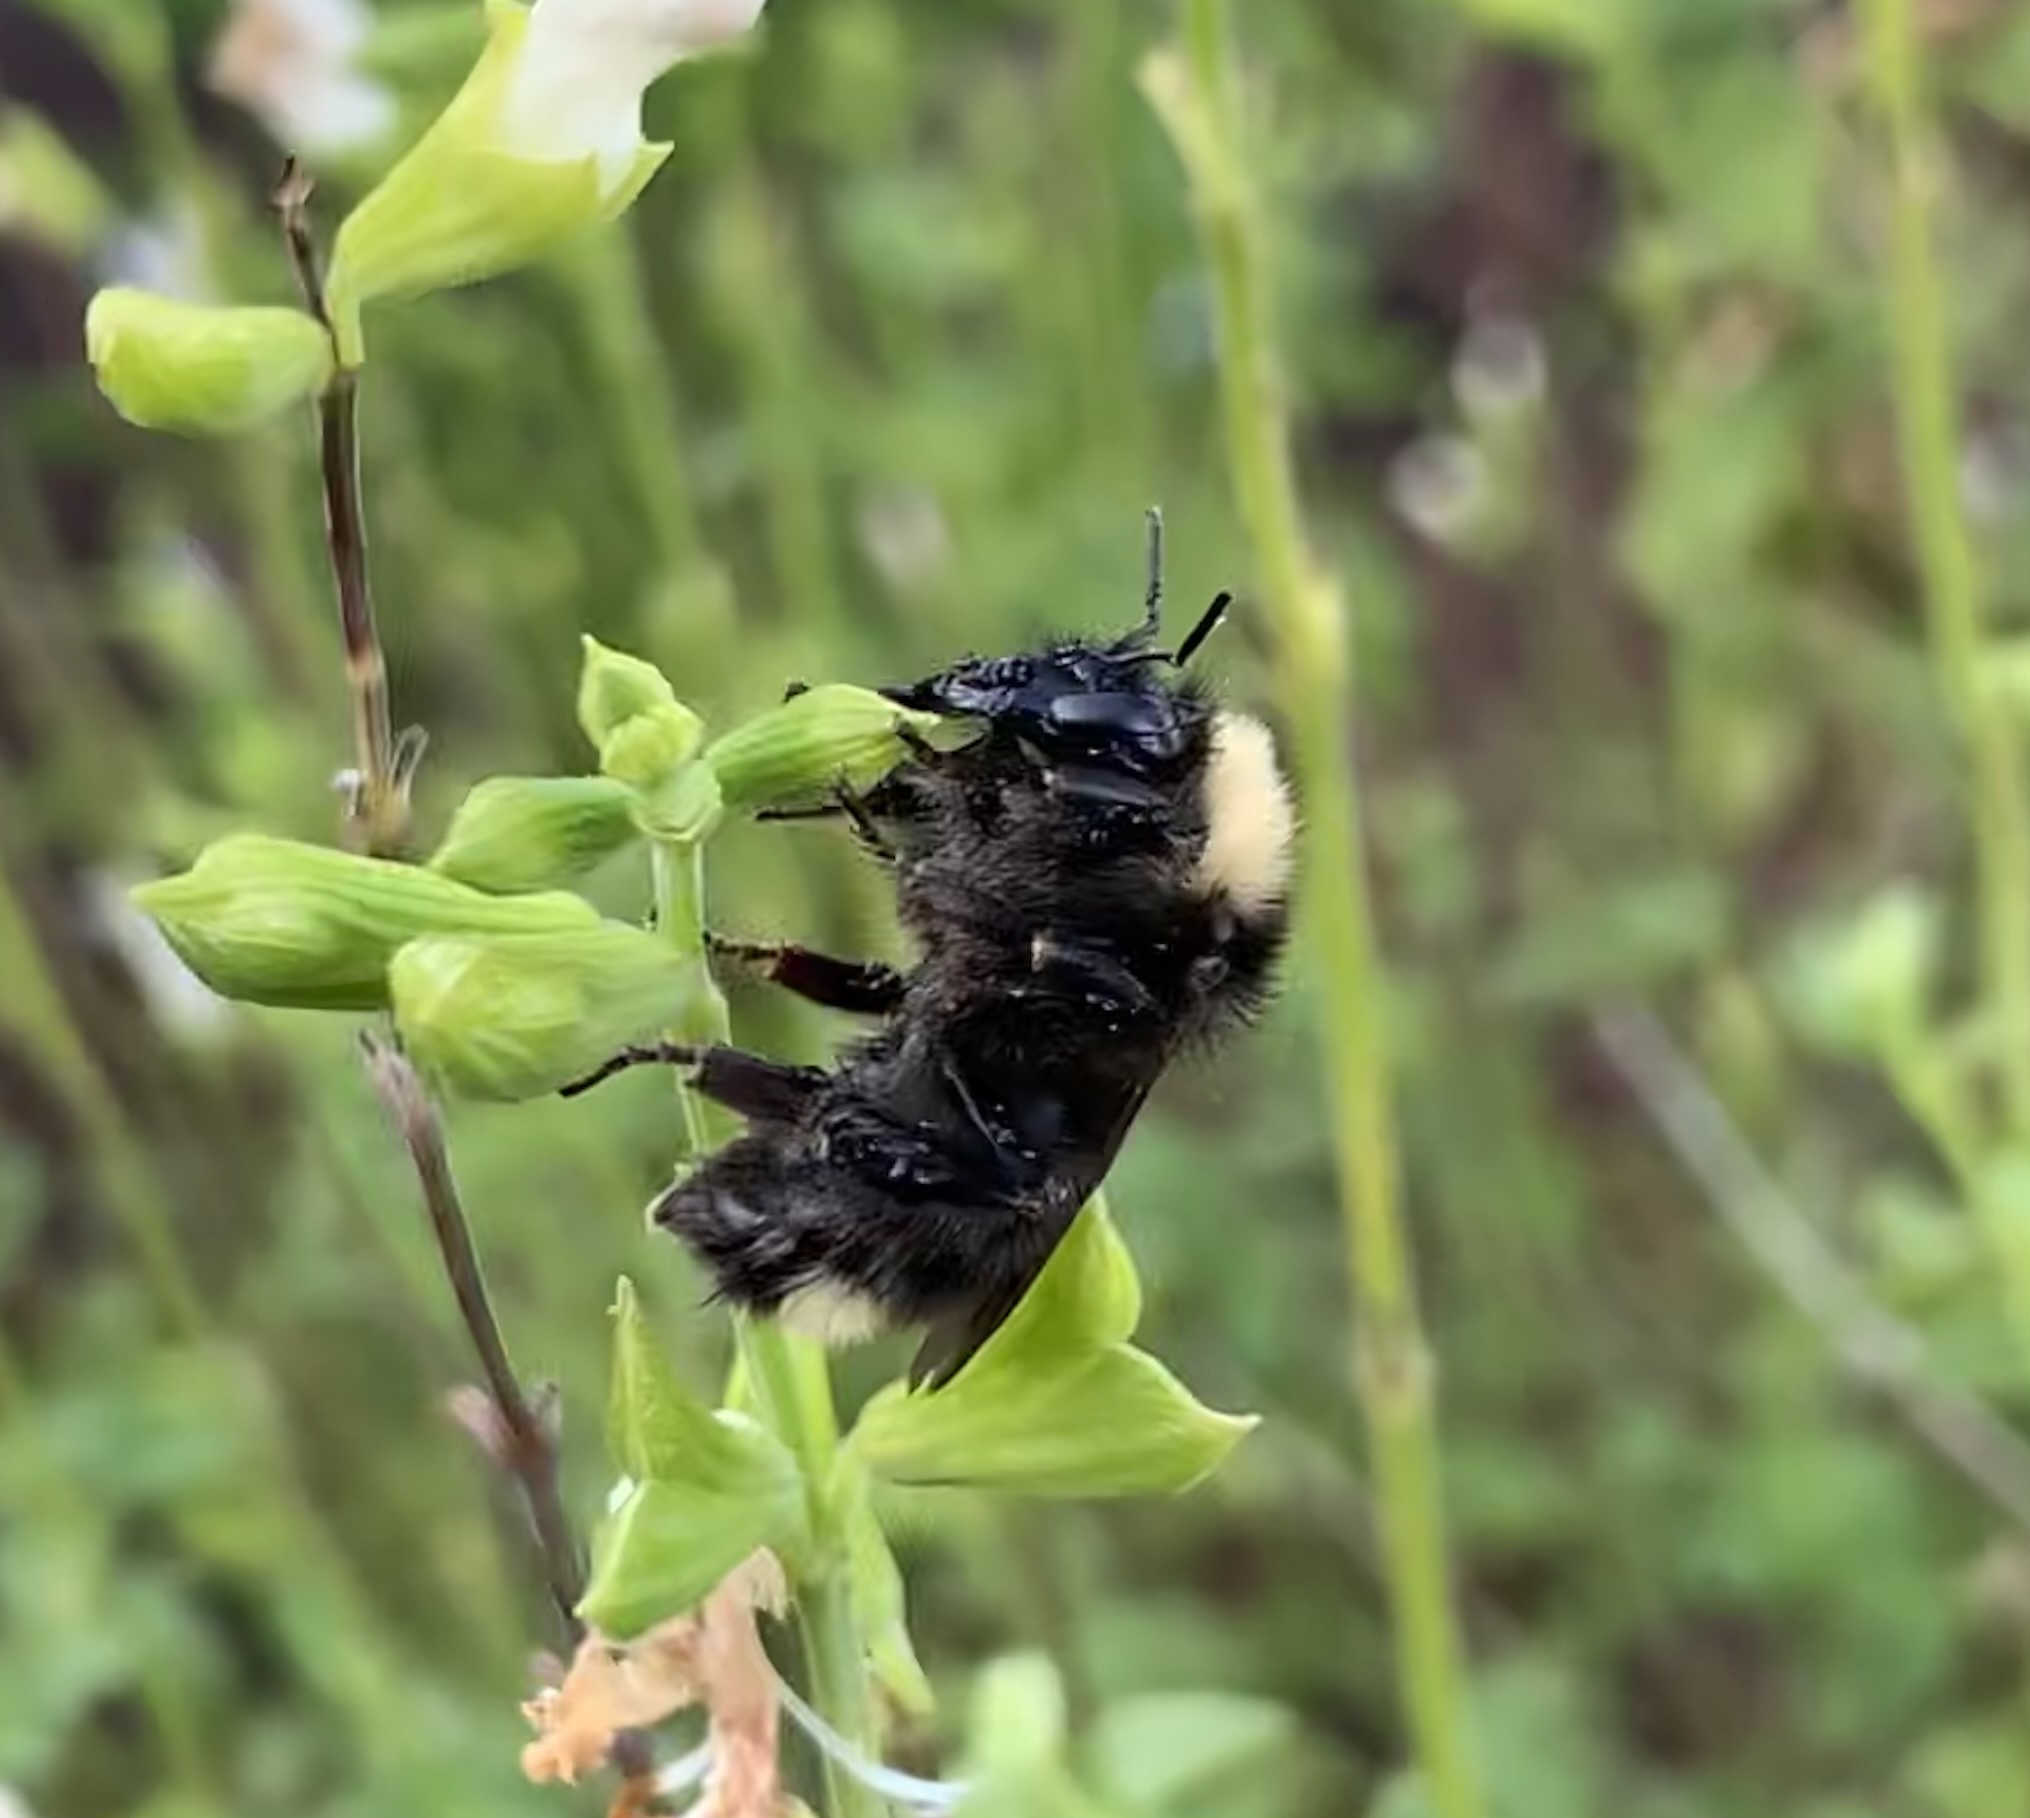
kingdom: Animalia
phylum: Arthropoda
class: Insecta
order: Hymenoptera
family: Apidae
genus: Bombus
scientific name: Bombus californicus
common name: California bumble bee
